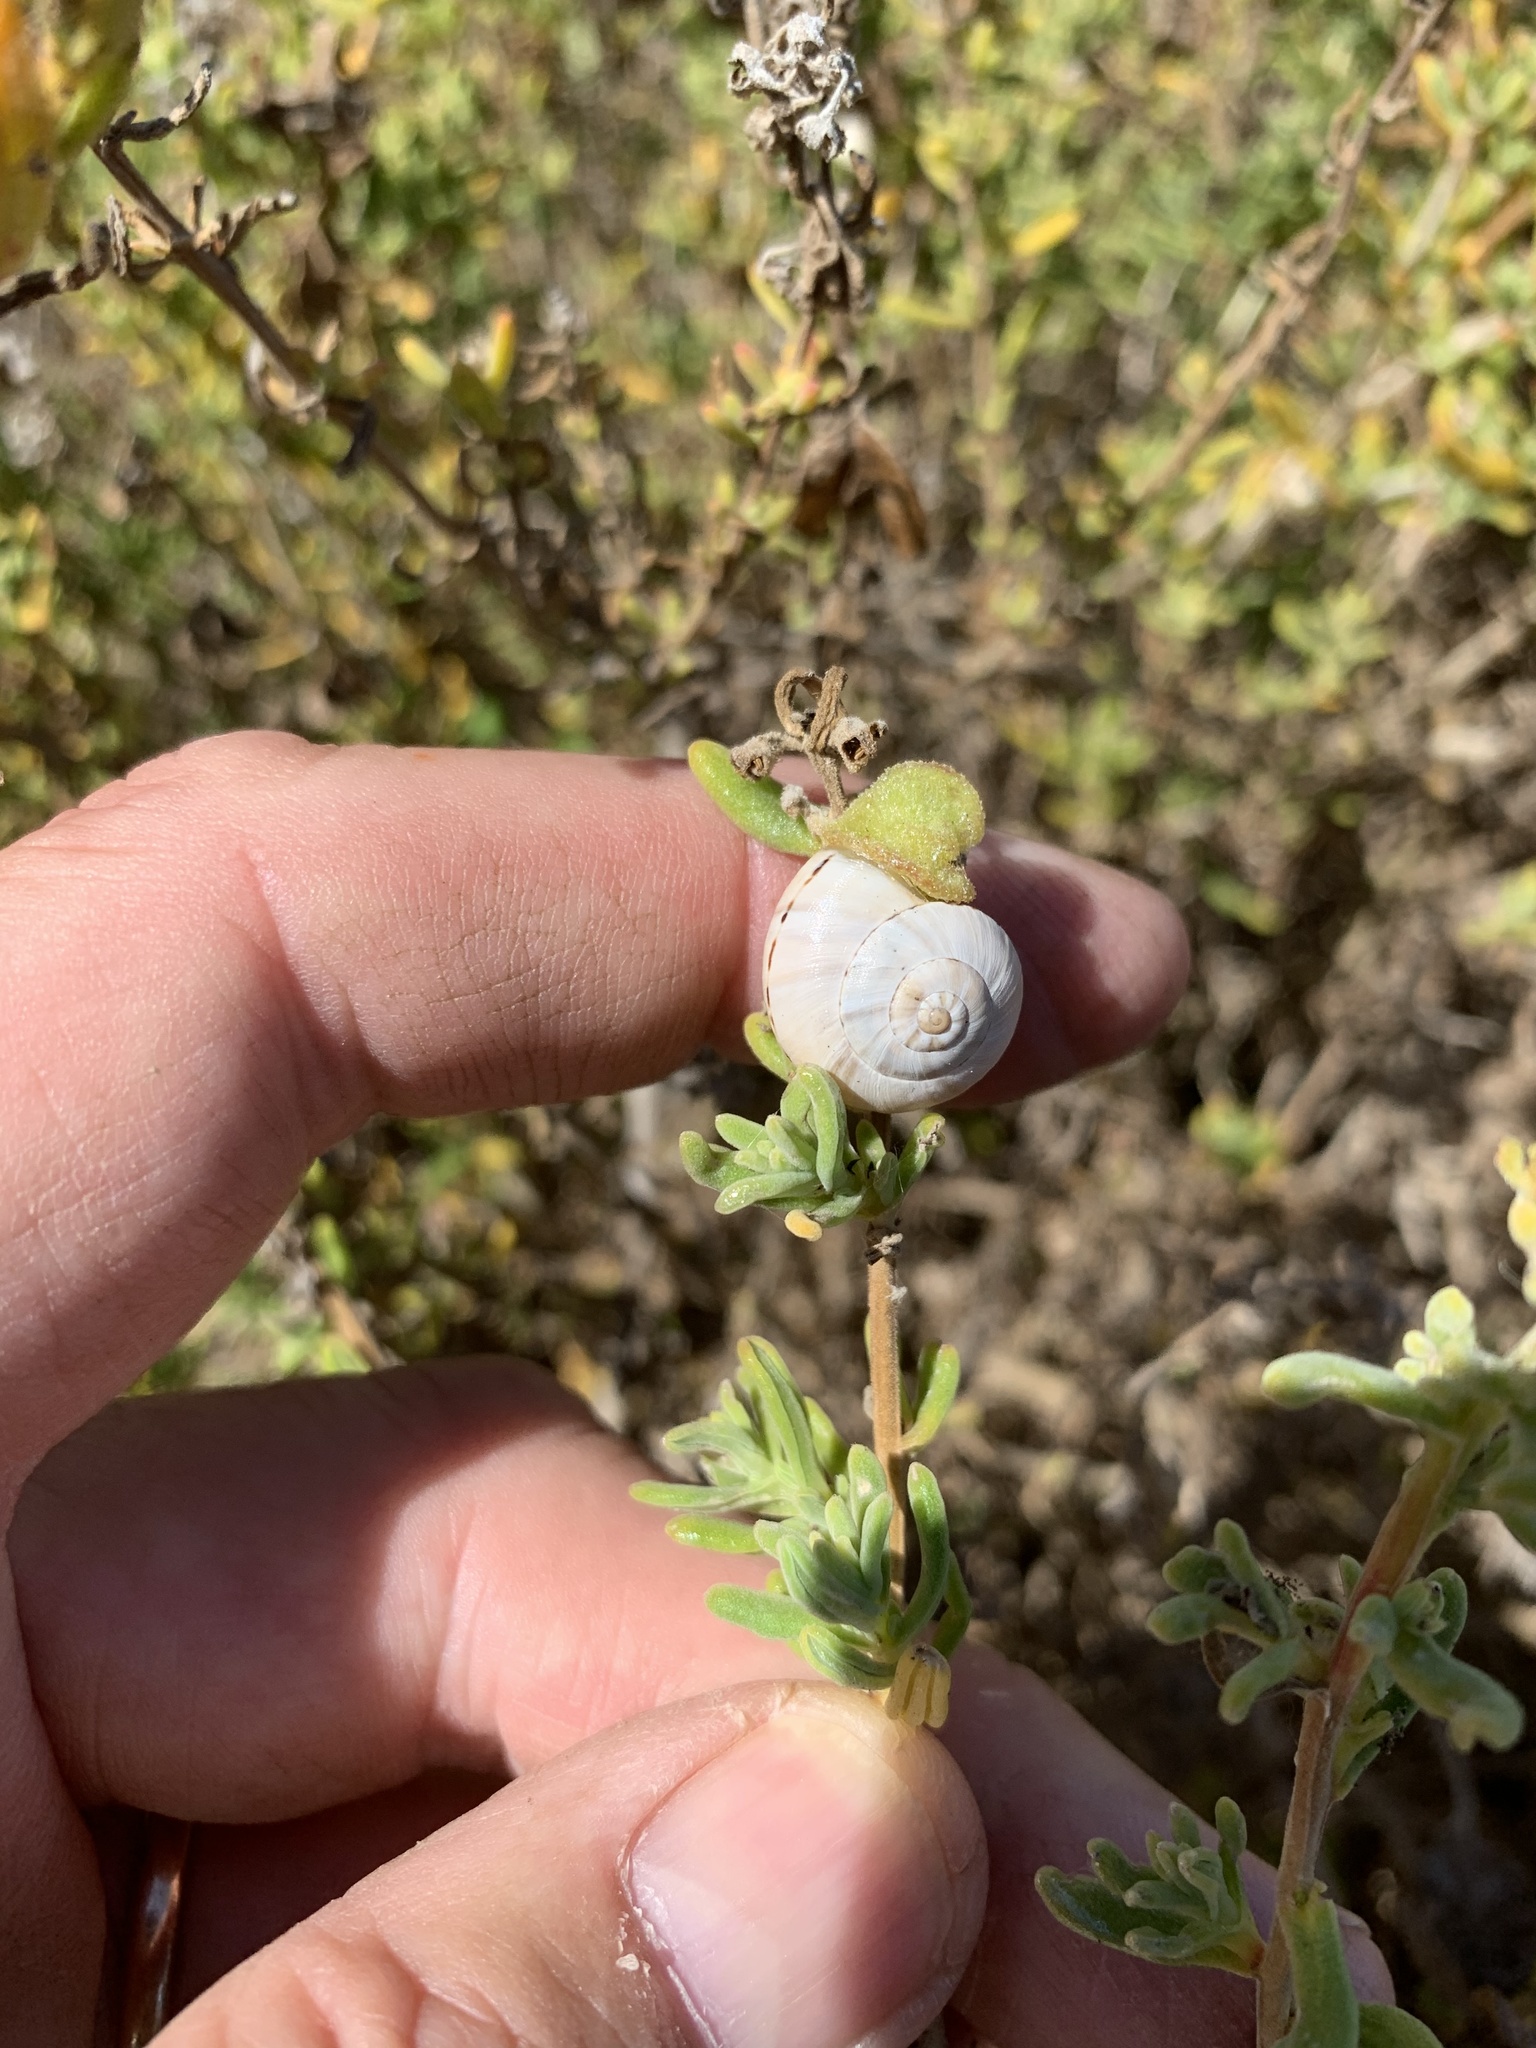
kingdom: Animalia
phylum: Mollusca
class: Gastropoda
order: Stylommatophora
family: Helicidae
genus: Theba
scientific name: Theba pisana
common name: White snail
